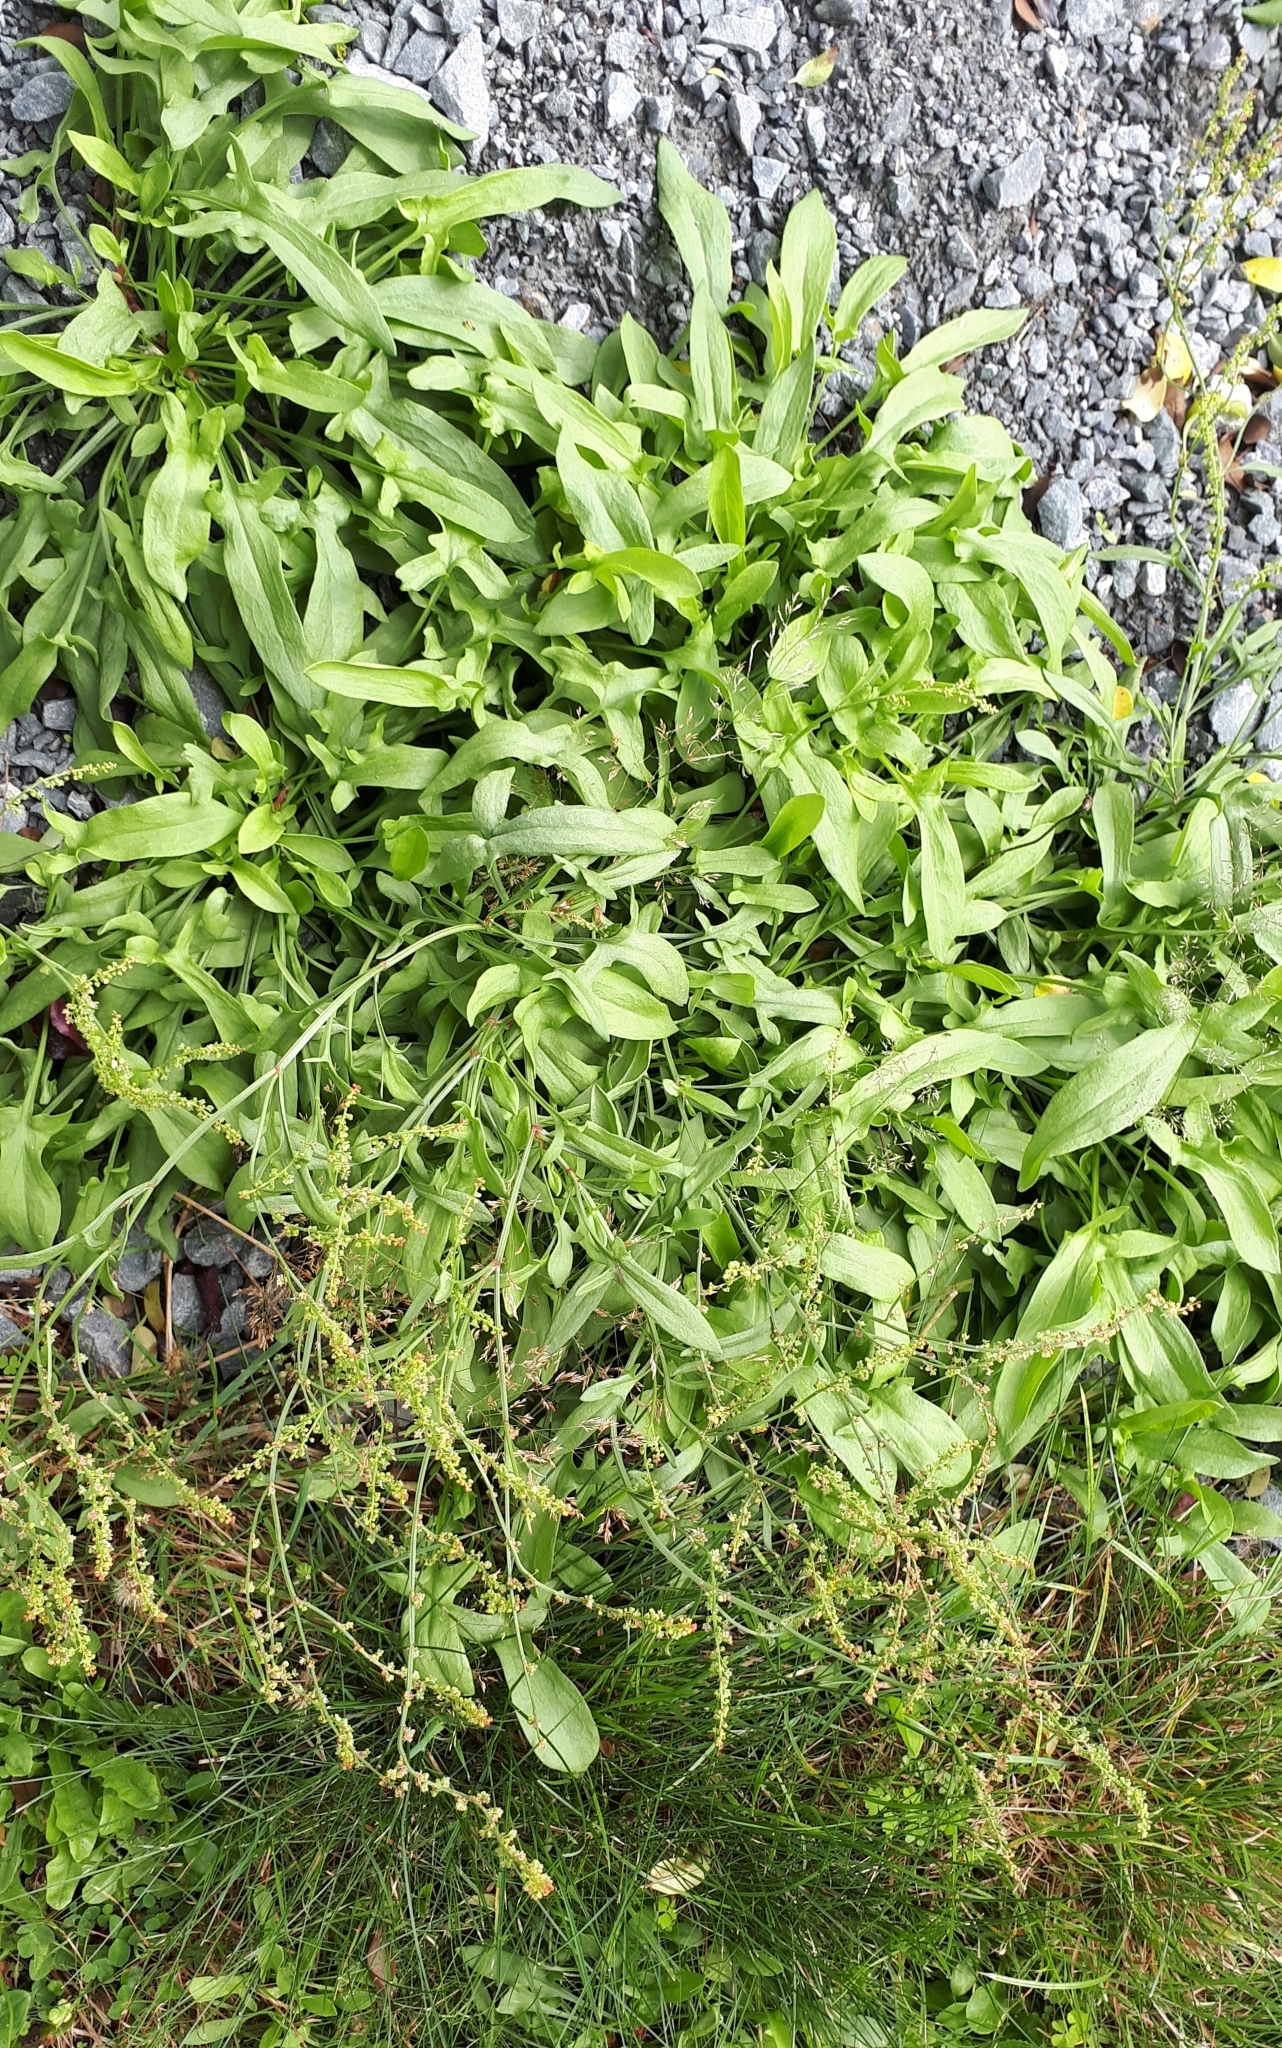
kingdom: Plantae
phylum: Tracheophyta
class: Magnoliopsida
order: Caryophyllales
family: Polygonaceae
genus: Rumex
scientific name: Rumex acetosella
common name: Common sheep sorrel
